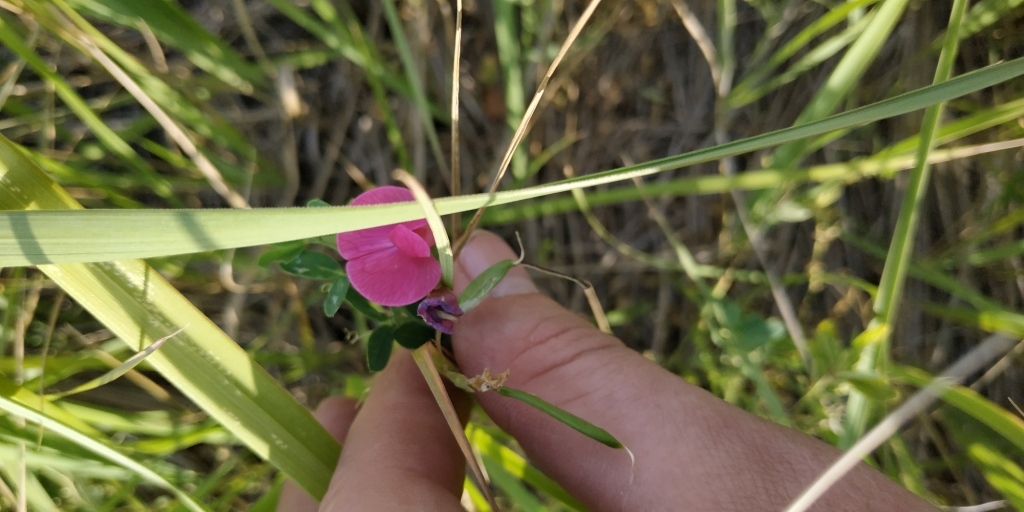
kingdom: Plantae
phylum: Tracheophyta
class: Magnoliopsida
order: Fabales
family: Fabaceae
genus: Lathyrus
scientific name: Lathyrus tuberosus
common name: Tuberous pea
